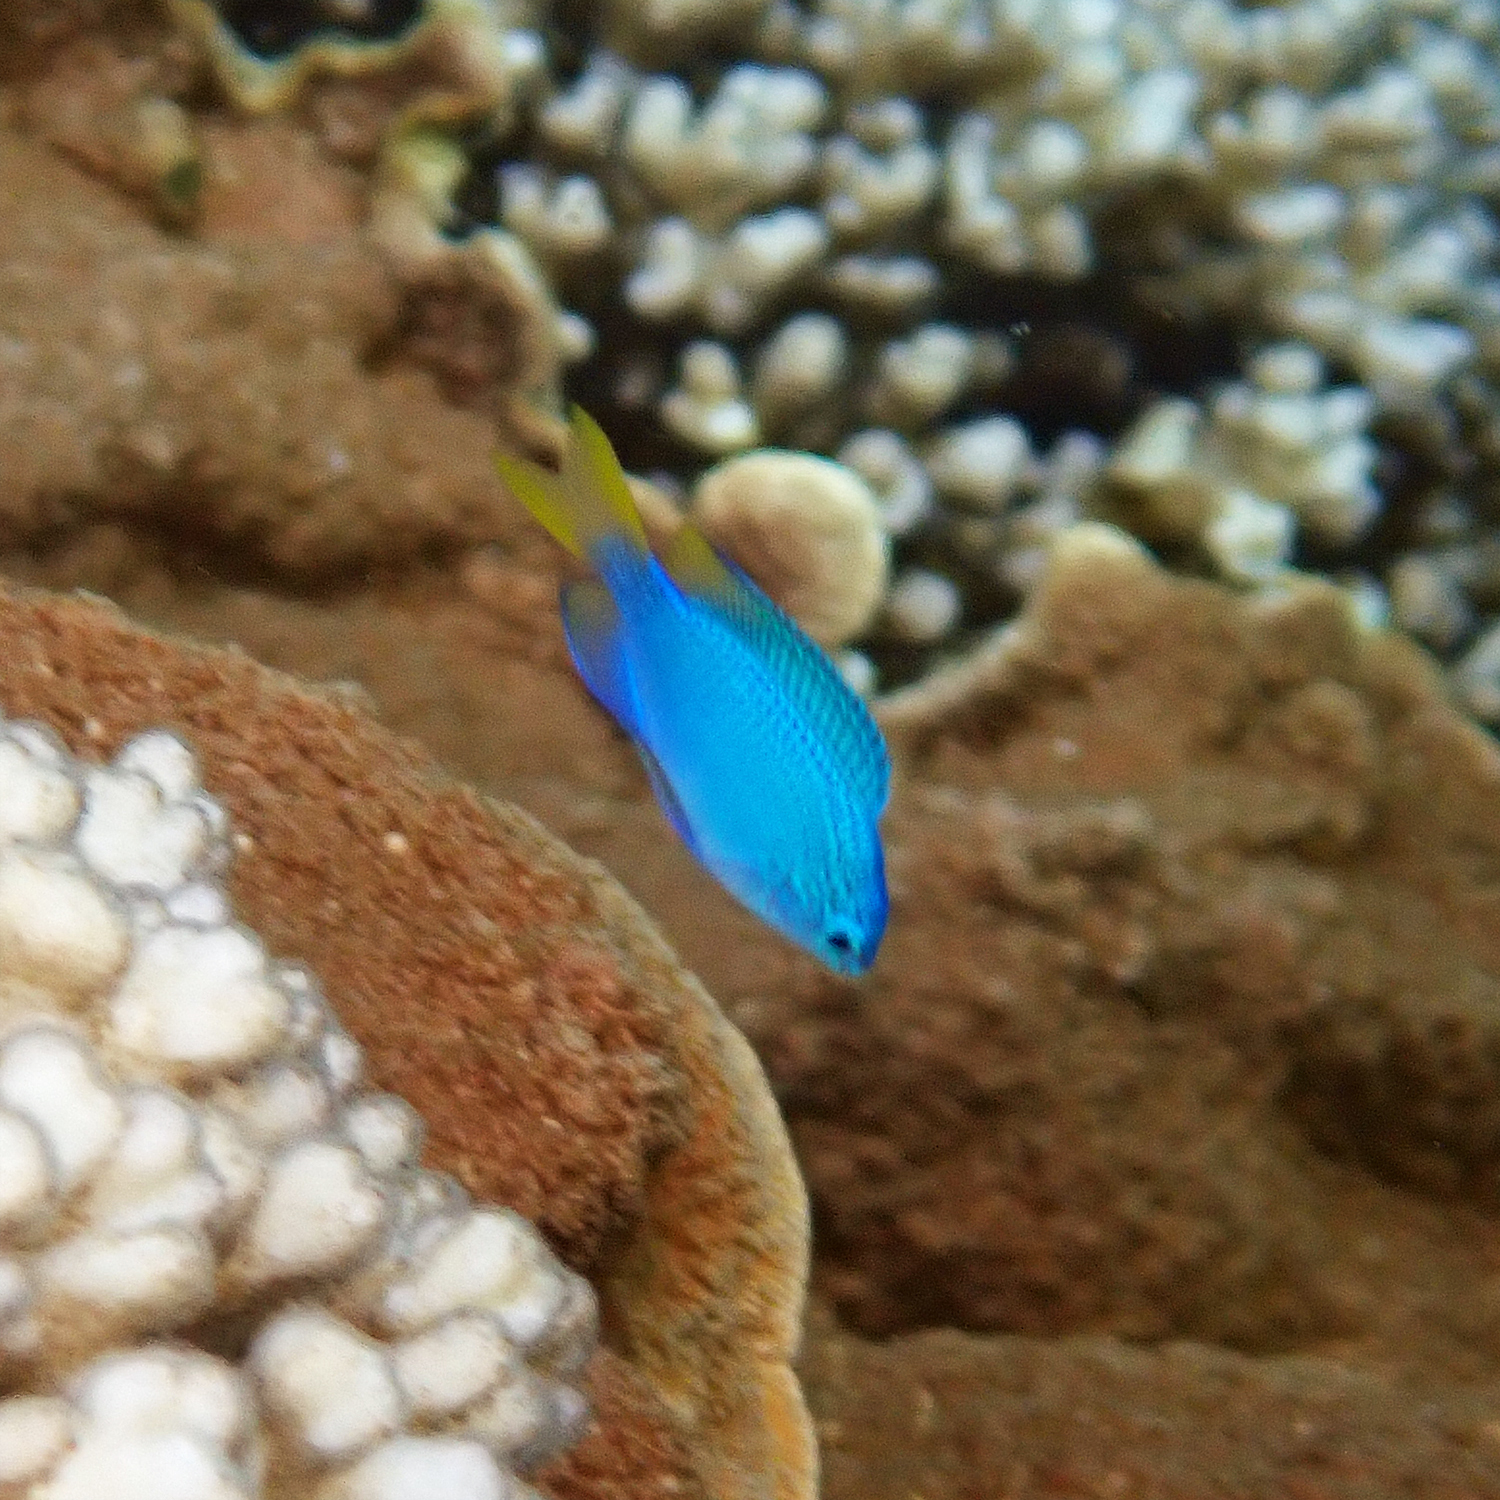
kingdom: Animalia
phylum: Chordata
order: Syngnathiformes
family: Fistulariidae
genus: Fistularia
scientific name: Fistularia commersonii
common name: Bluespotted cornetfish
